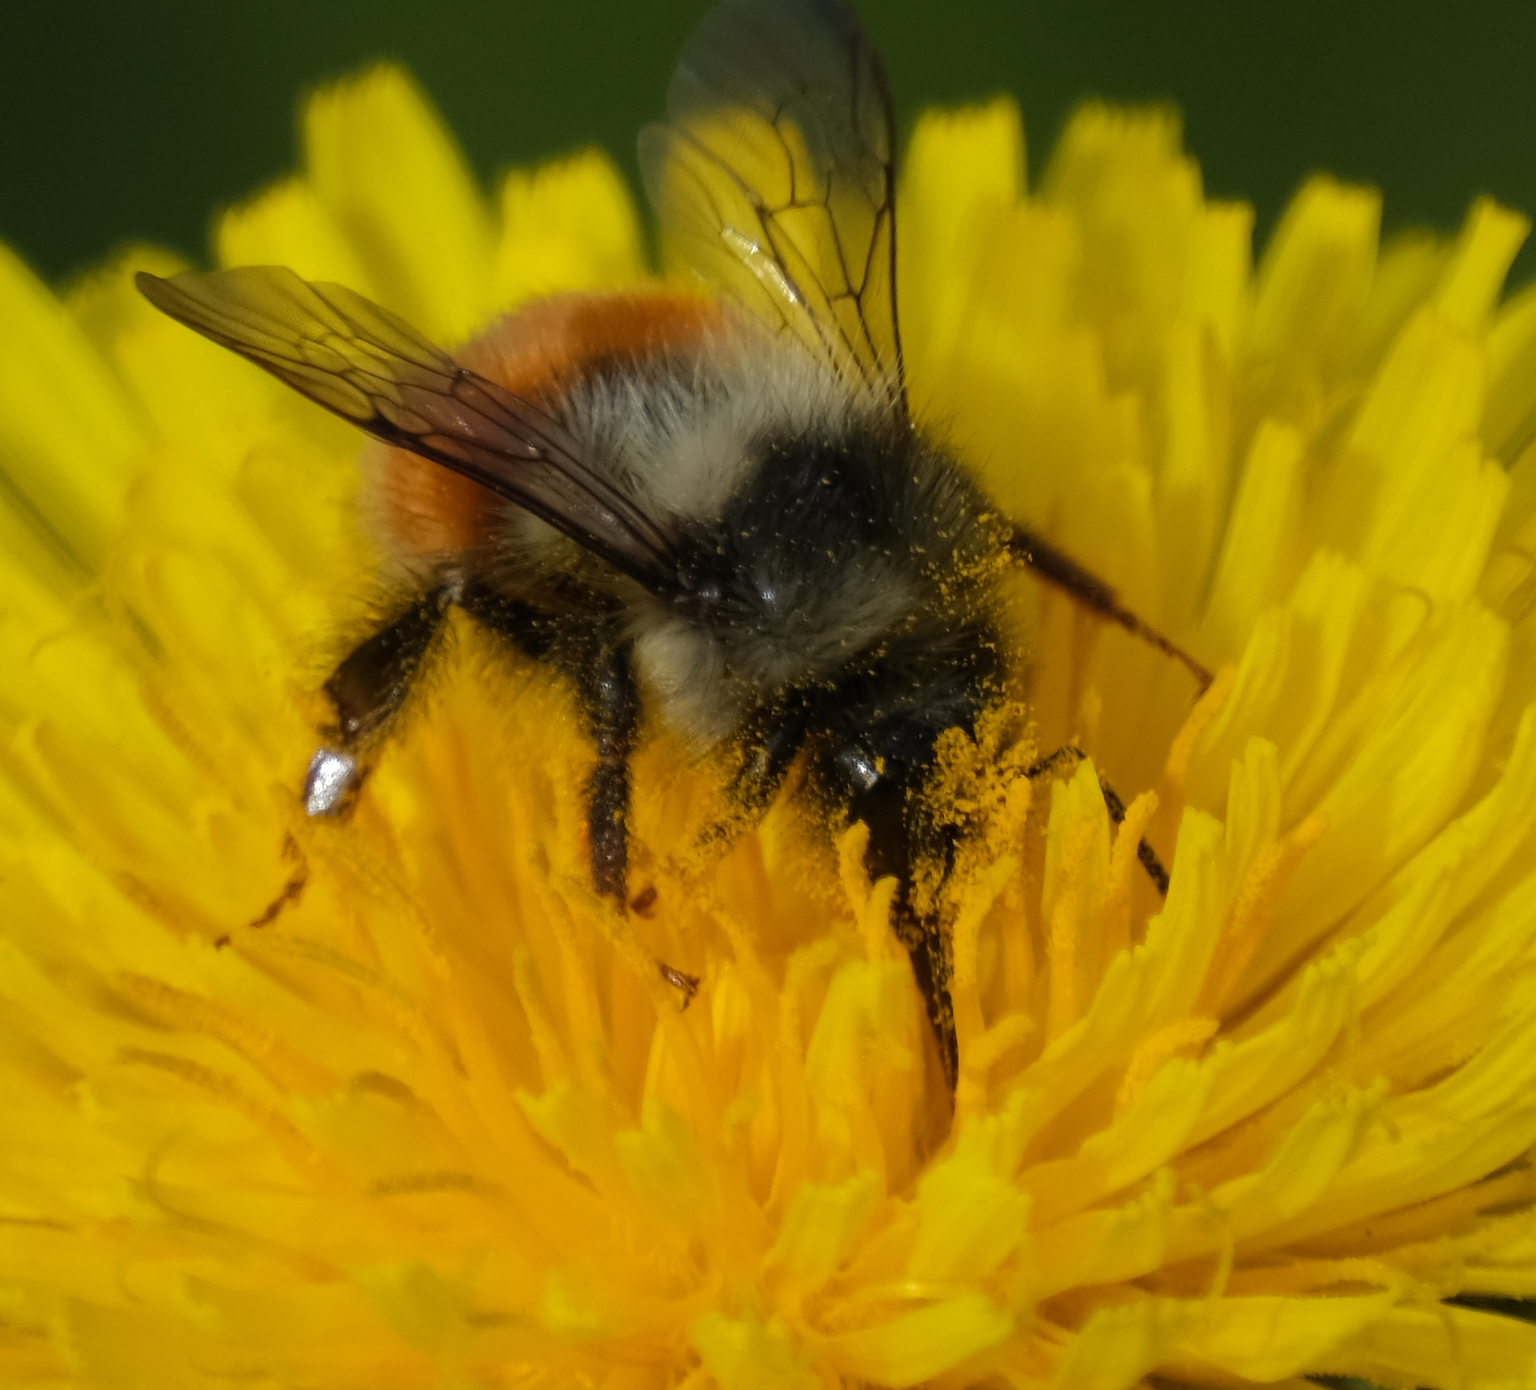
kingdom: Animalia
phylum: Arthropoda
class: Insecta
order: Hymenoptera
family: Apidae
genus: Bombus
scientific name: Bombus melanopygus
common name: Black tail bumble bee
